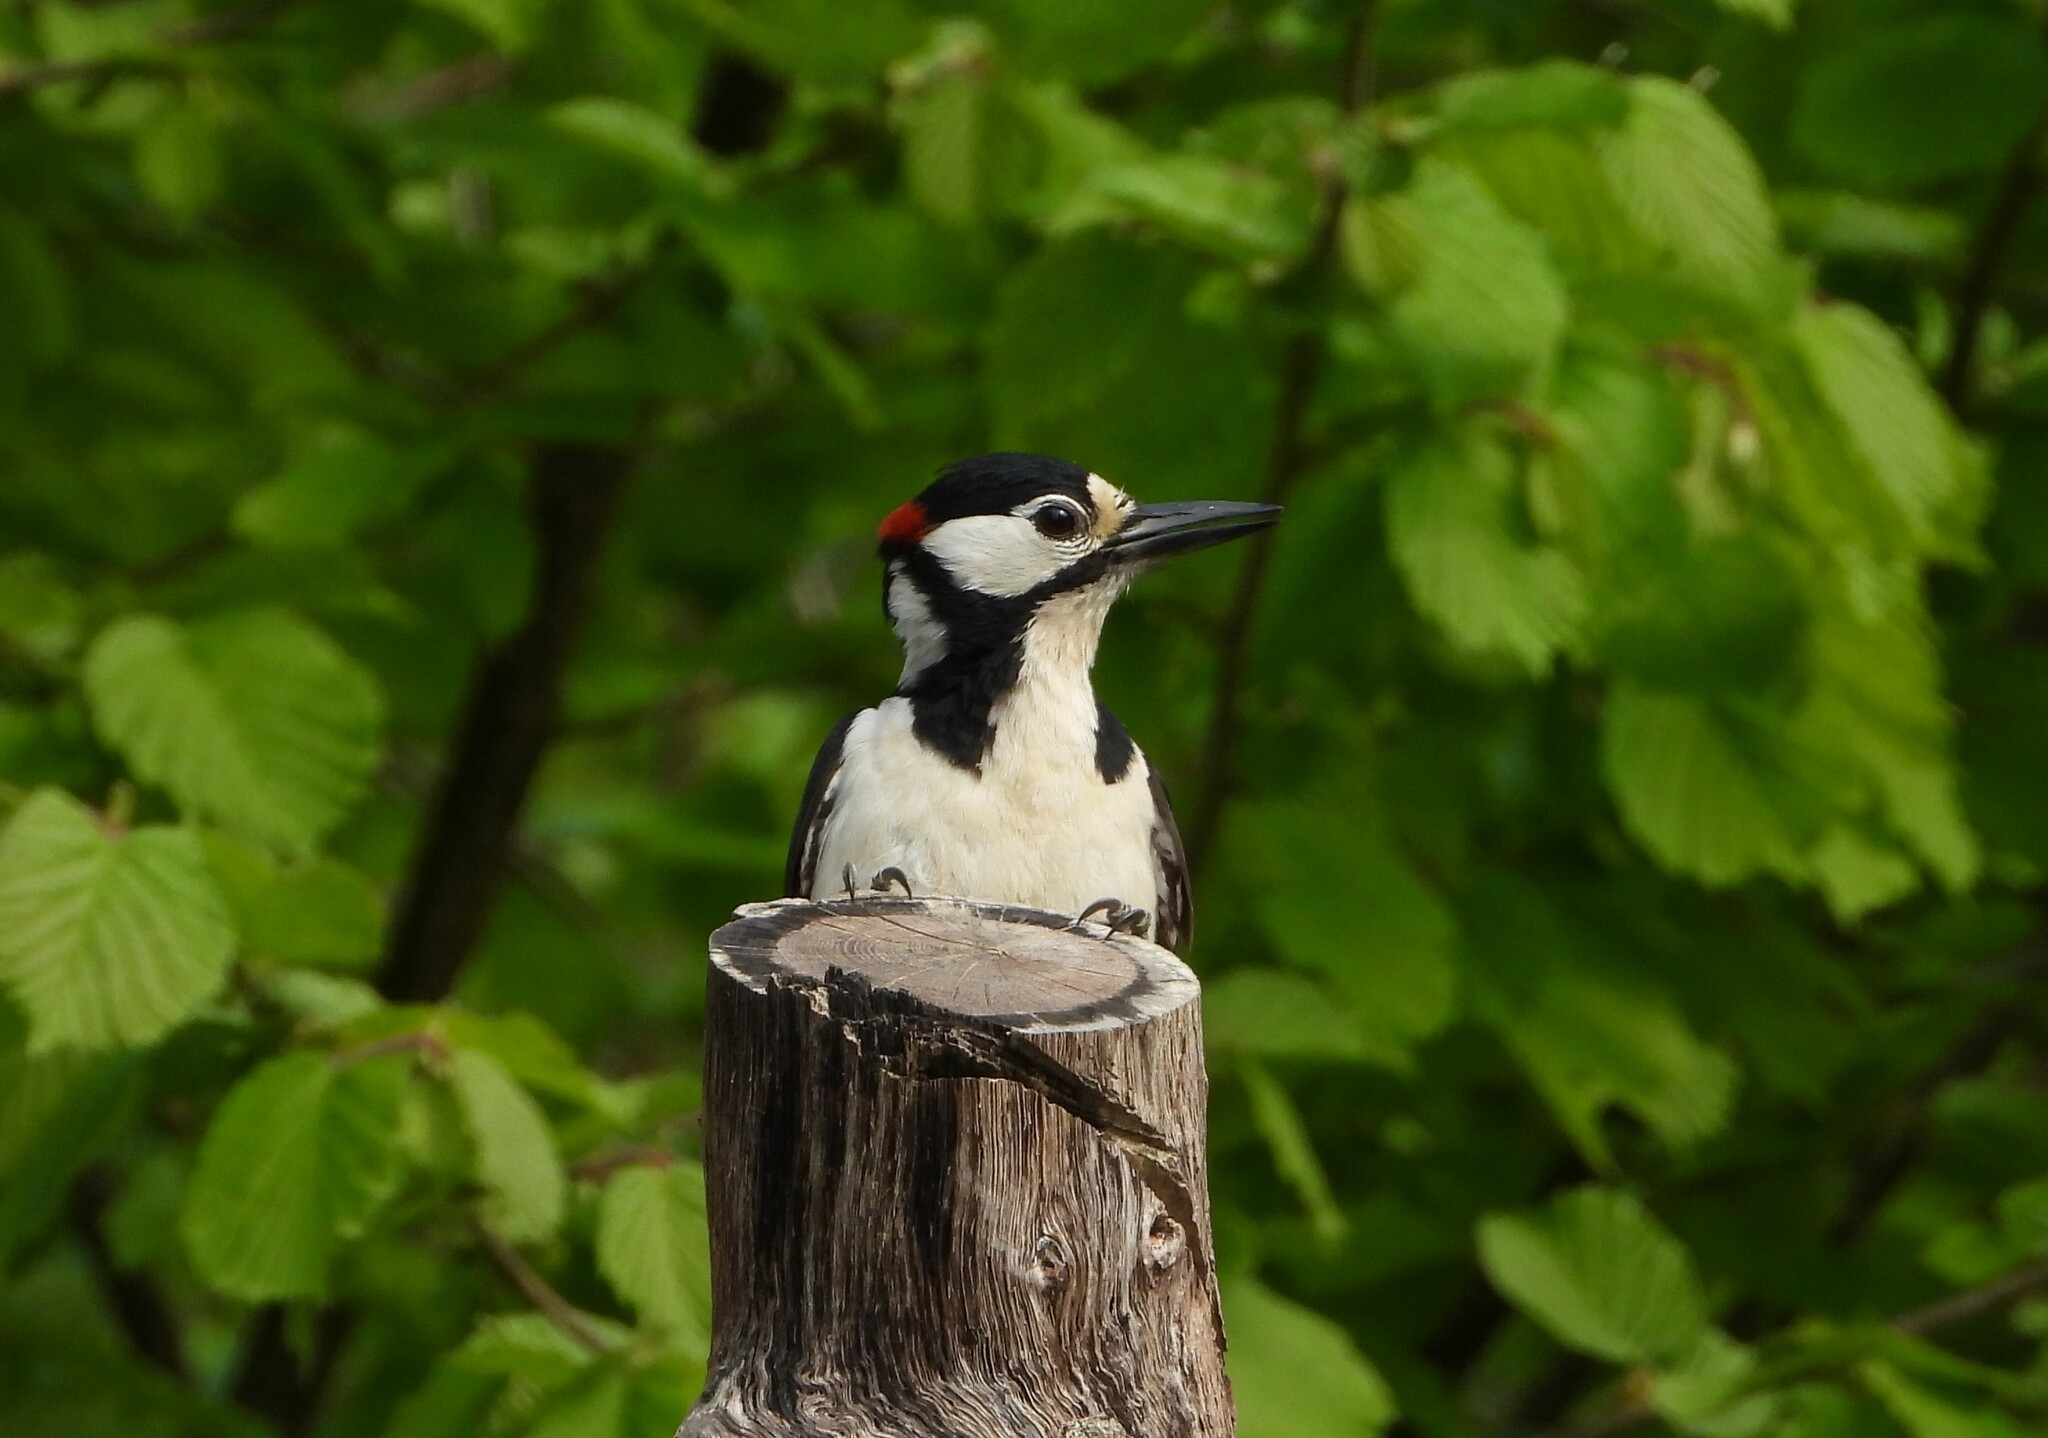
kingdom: Animalia
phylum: Chordata
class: Aves
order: Piciformes
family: Picidae
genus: Dendrocopos
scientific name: Dendrocopos major
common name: Great spotted woodpecker
